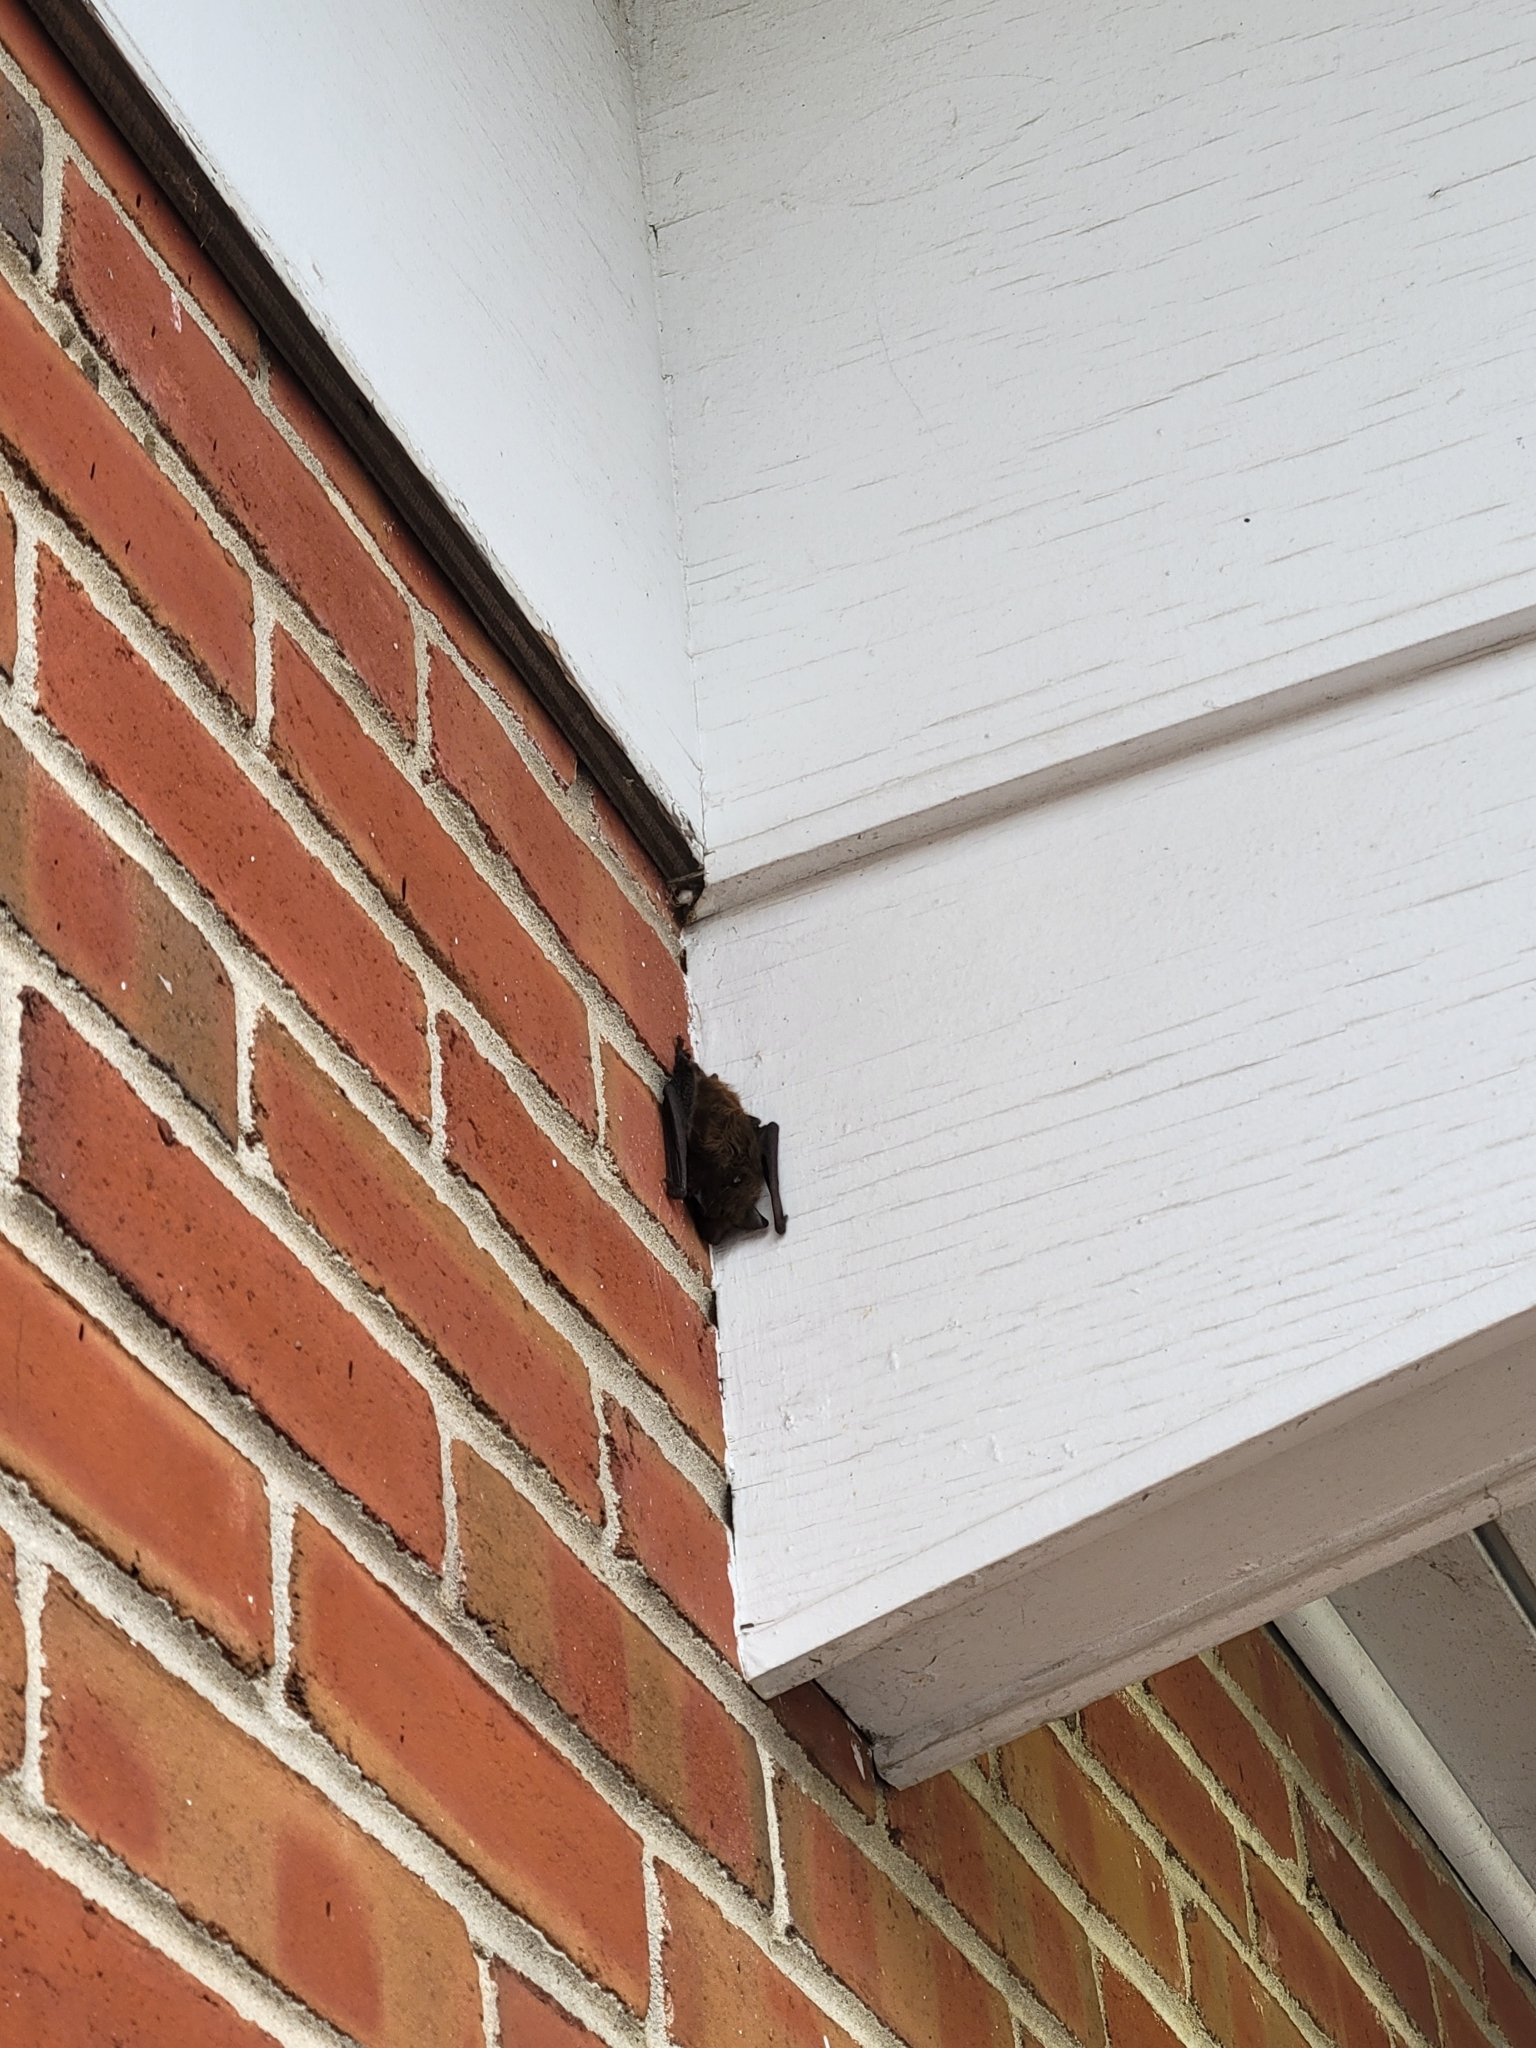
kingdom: Animalia
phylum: Chordata
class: Mammalia
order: Chiroptera
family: Vespertilionidae
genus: Eptesicus
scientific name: Eptesicus fuscus
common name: Big brown bat
